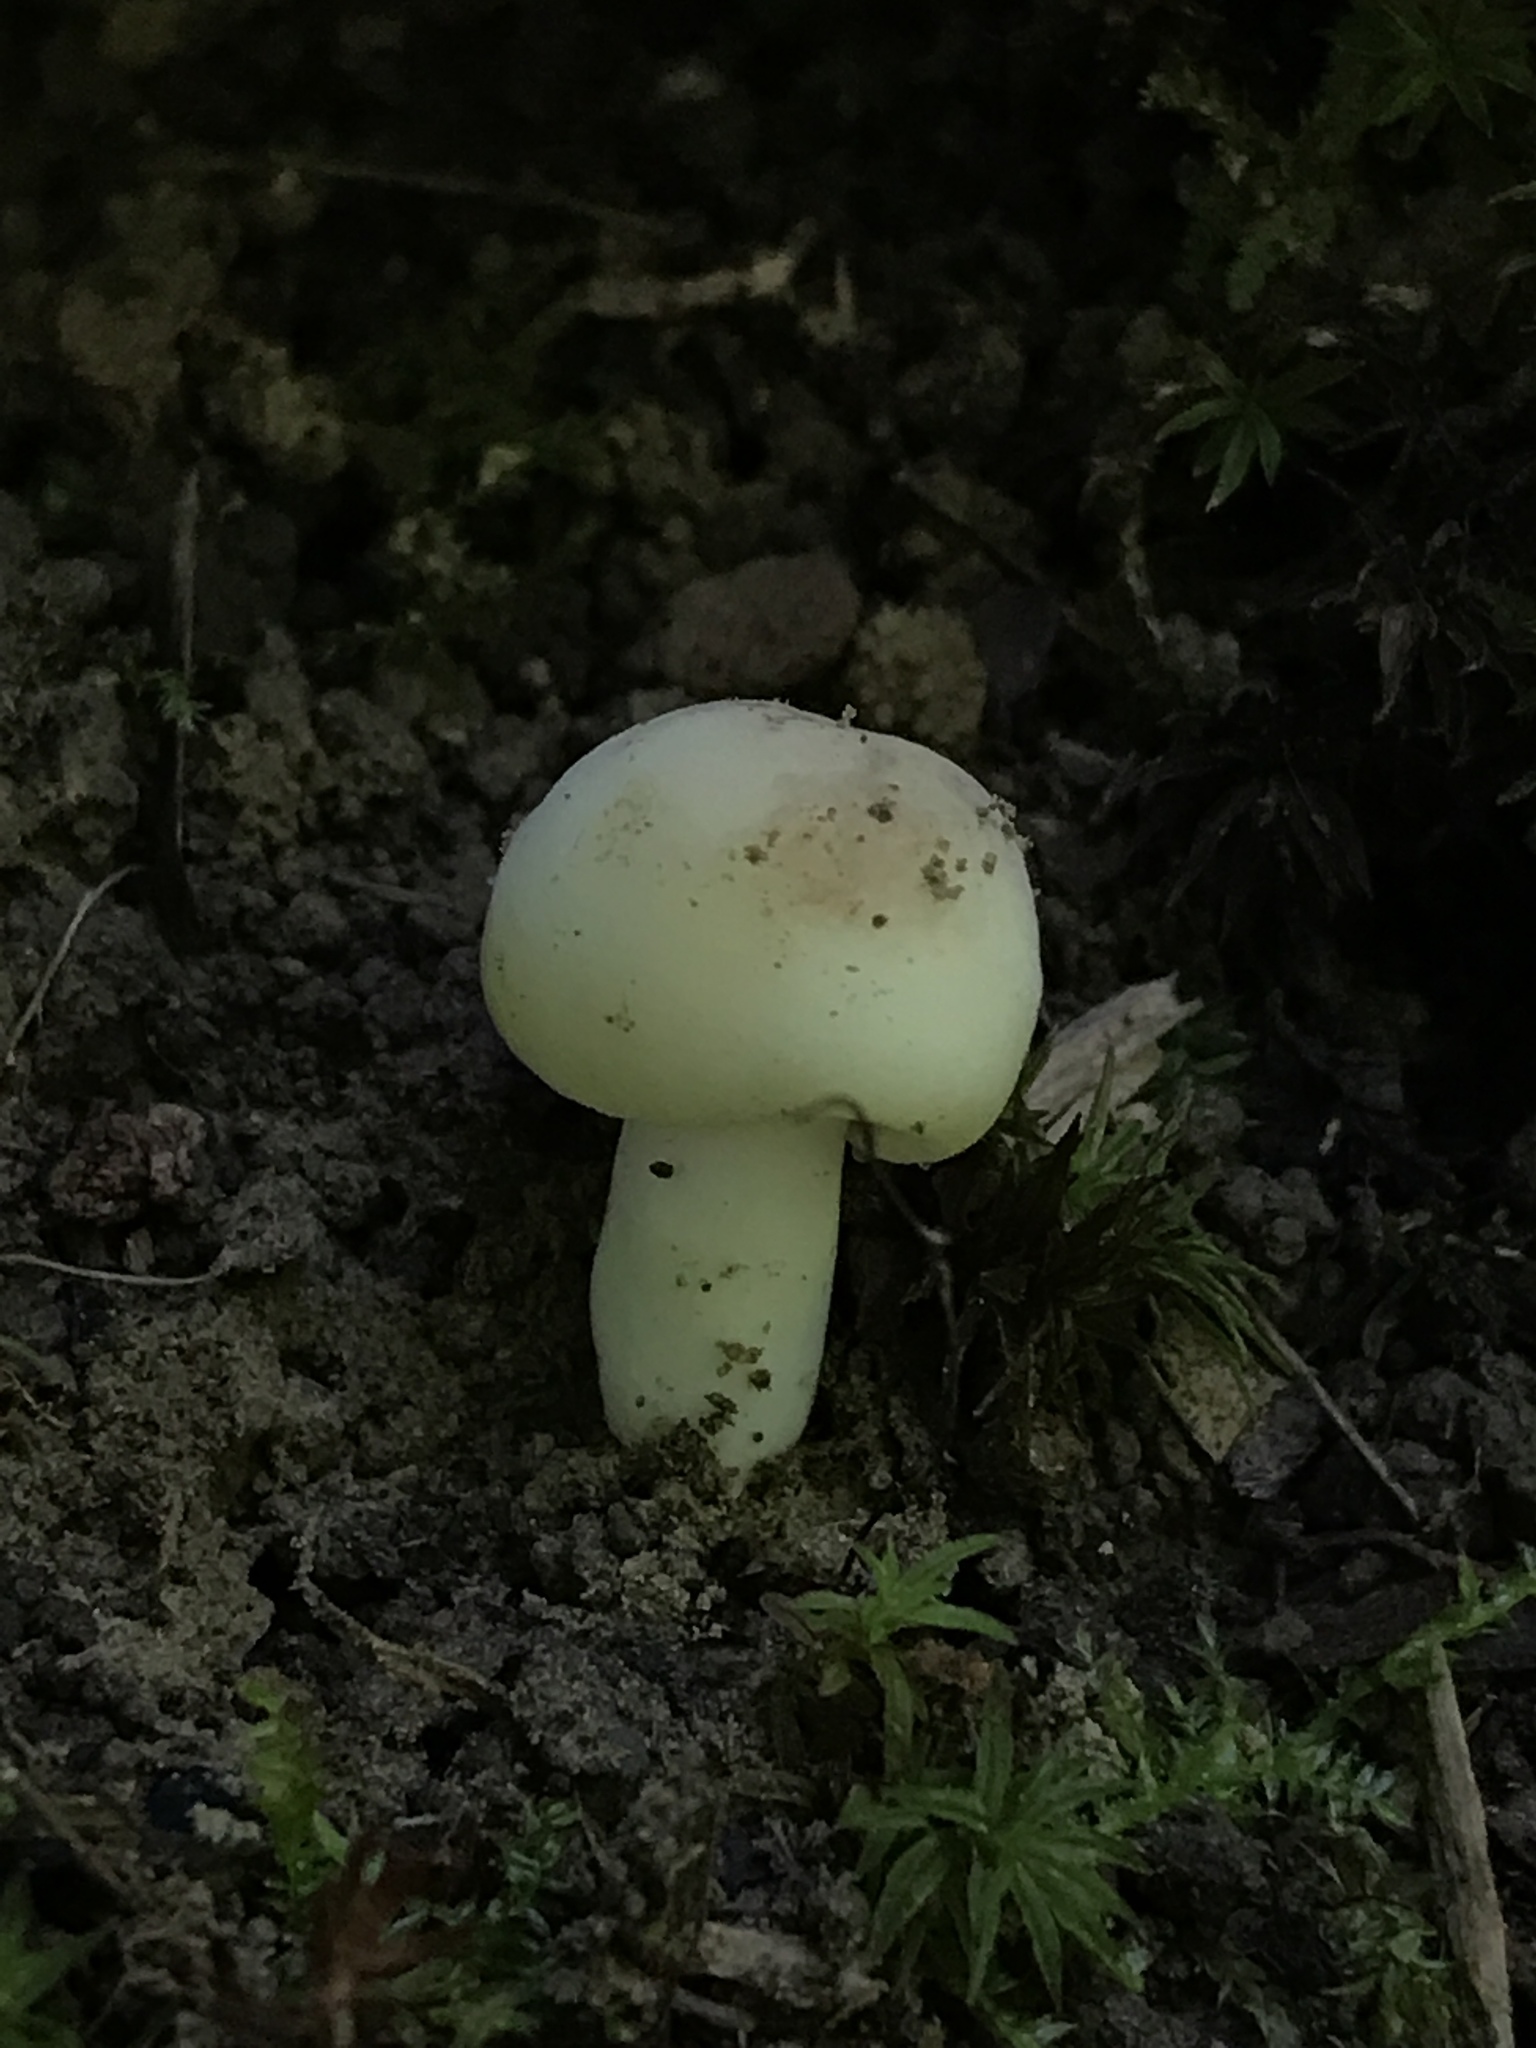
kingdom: Fungi
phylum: Basidiomycota
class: Agaricomycetes
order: Russulales
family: Russulaceae
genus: Russula
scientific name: Russula mariae
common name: Purple-bloom russula
